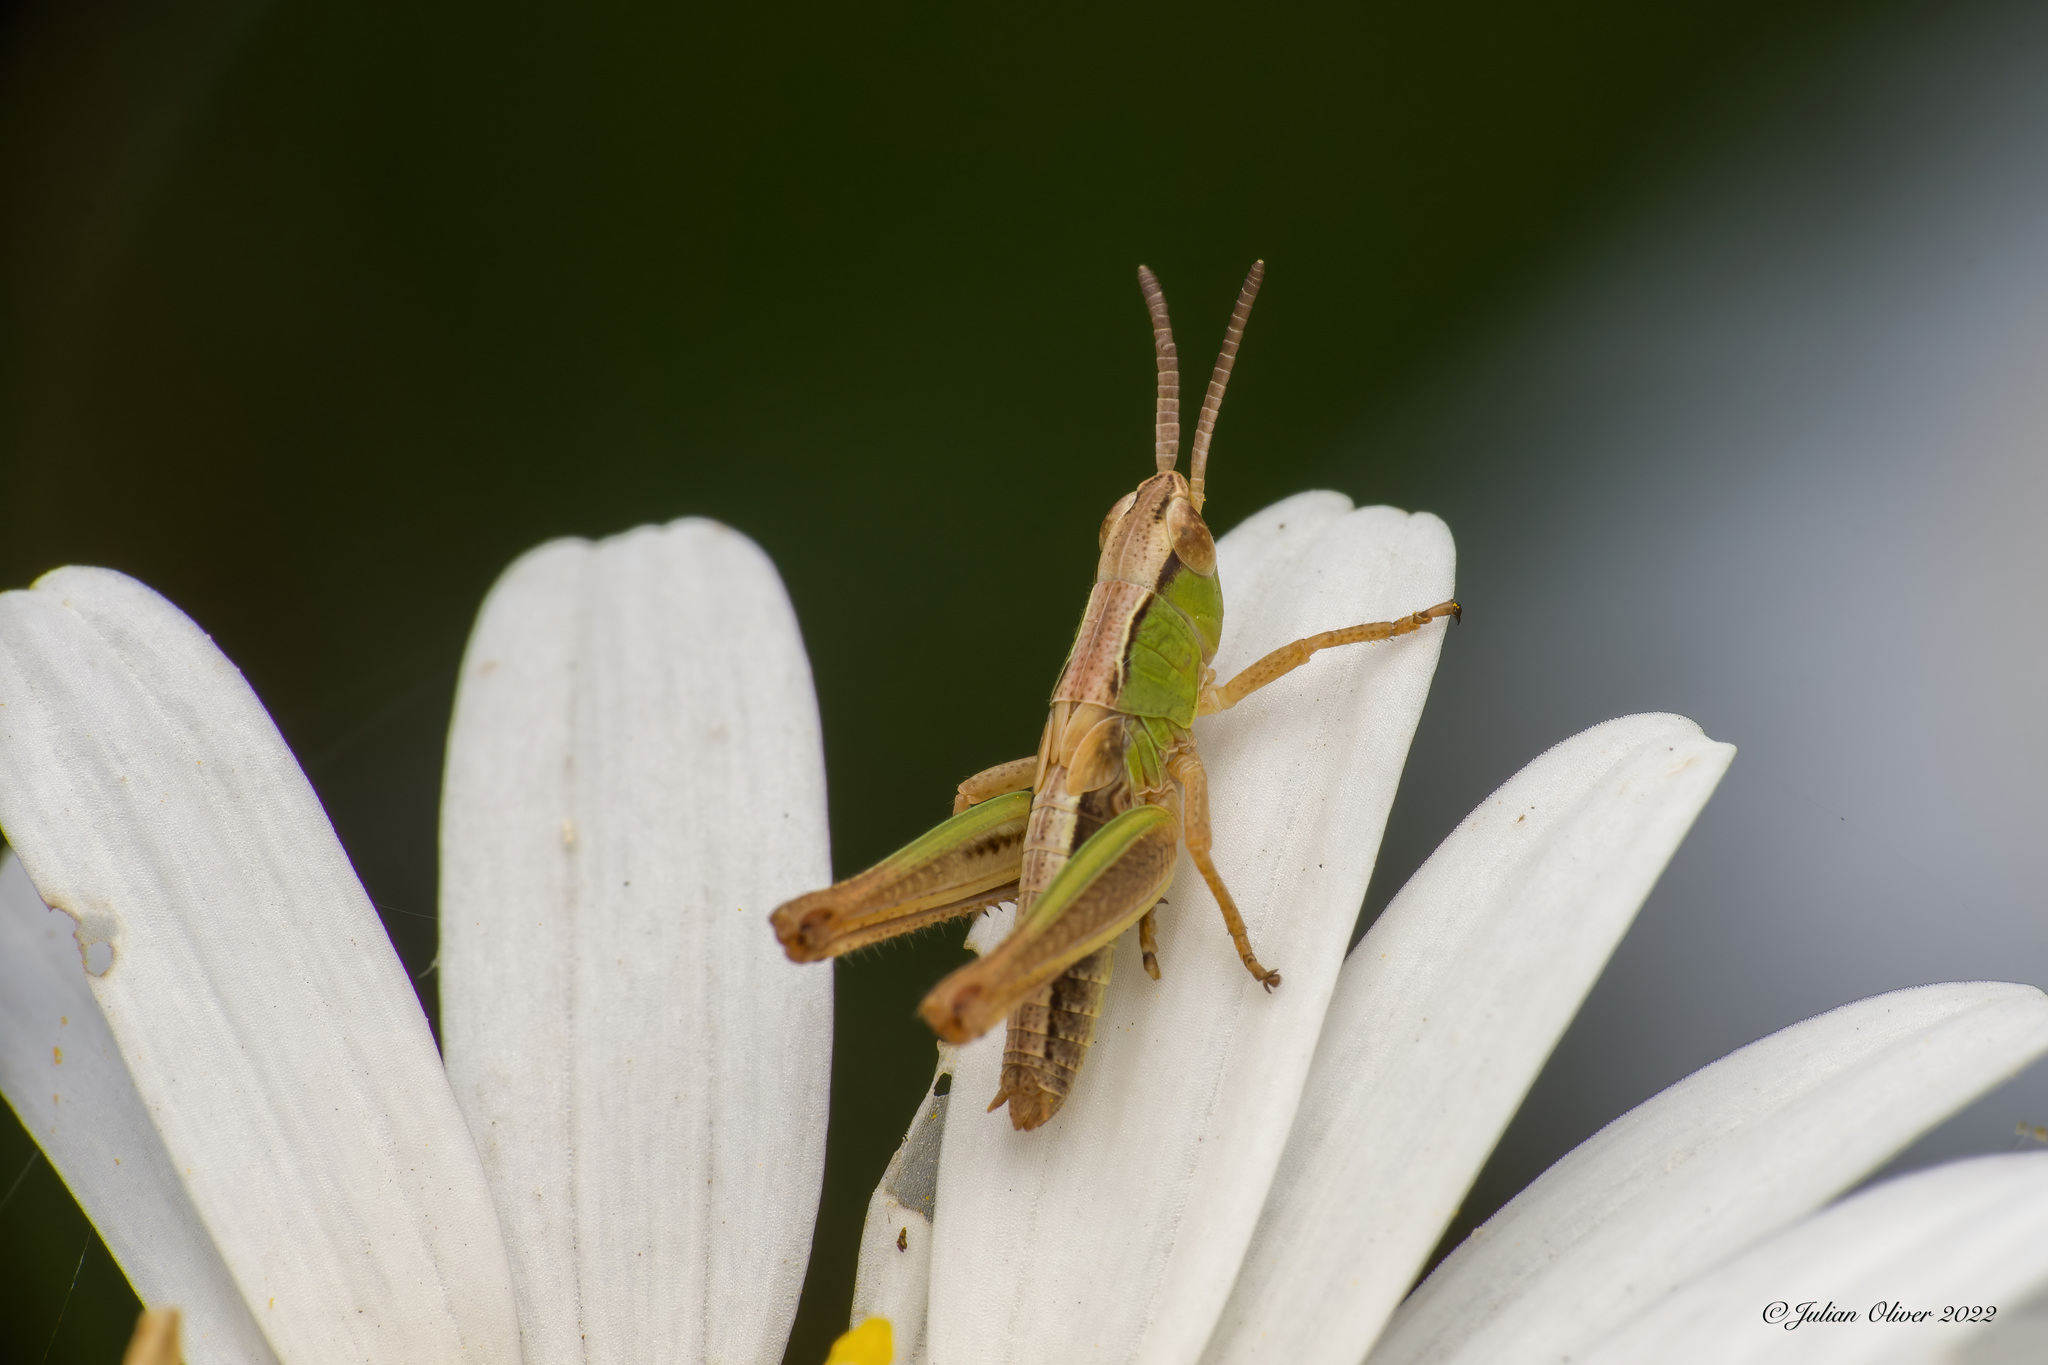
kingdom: Animalia
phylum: Arthropoda
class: Insecta
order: Orthoptera
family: Acrididae
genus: Pseudochorthippus
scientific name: Pseudochorthippus parallelus
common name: Meadow grasshopper
